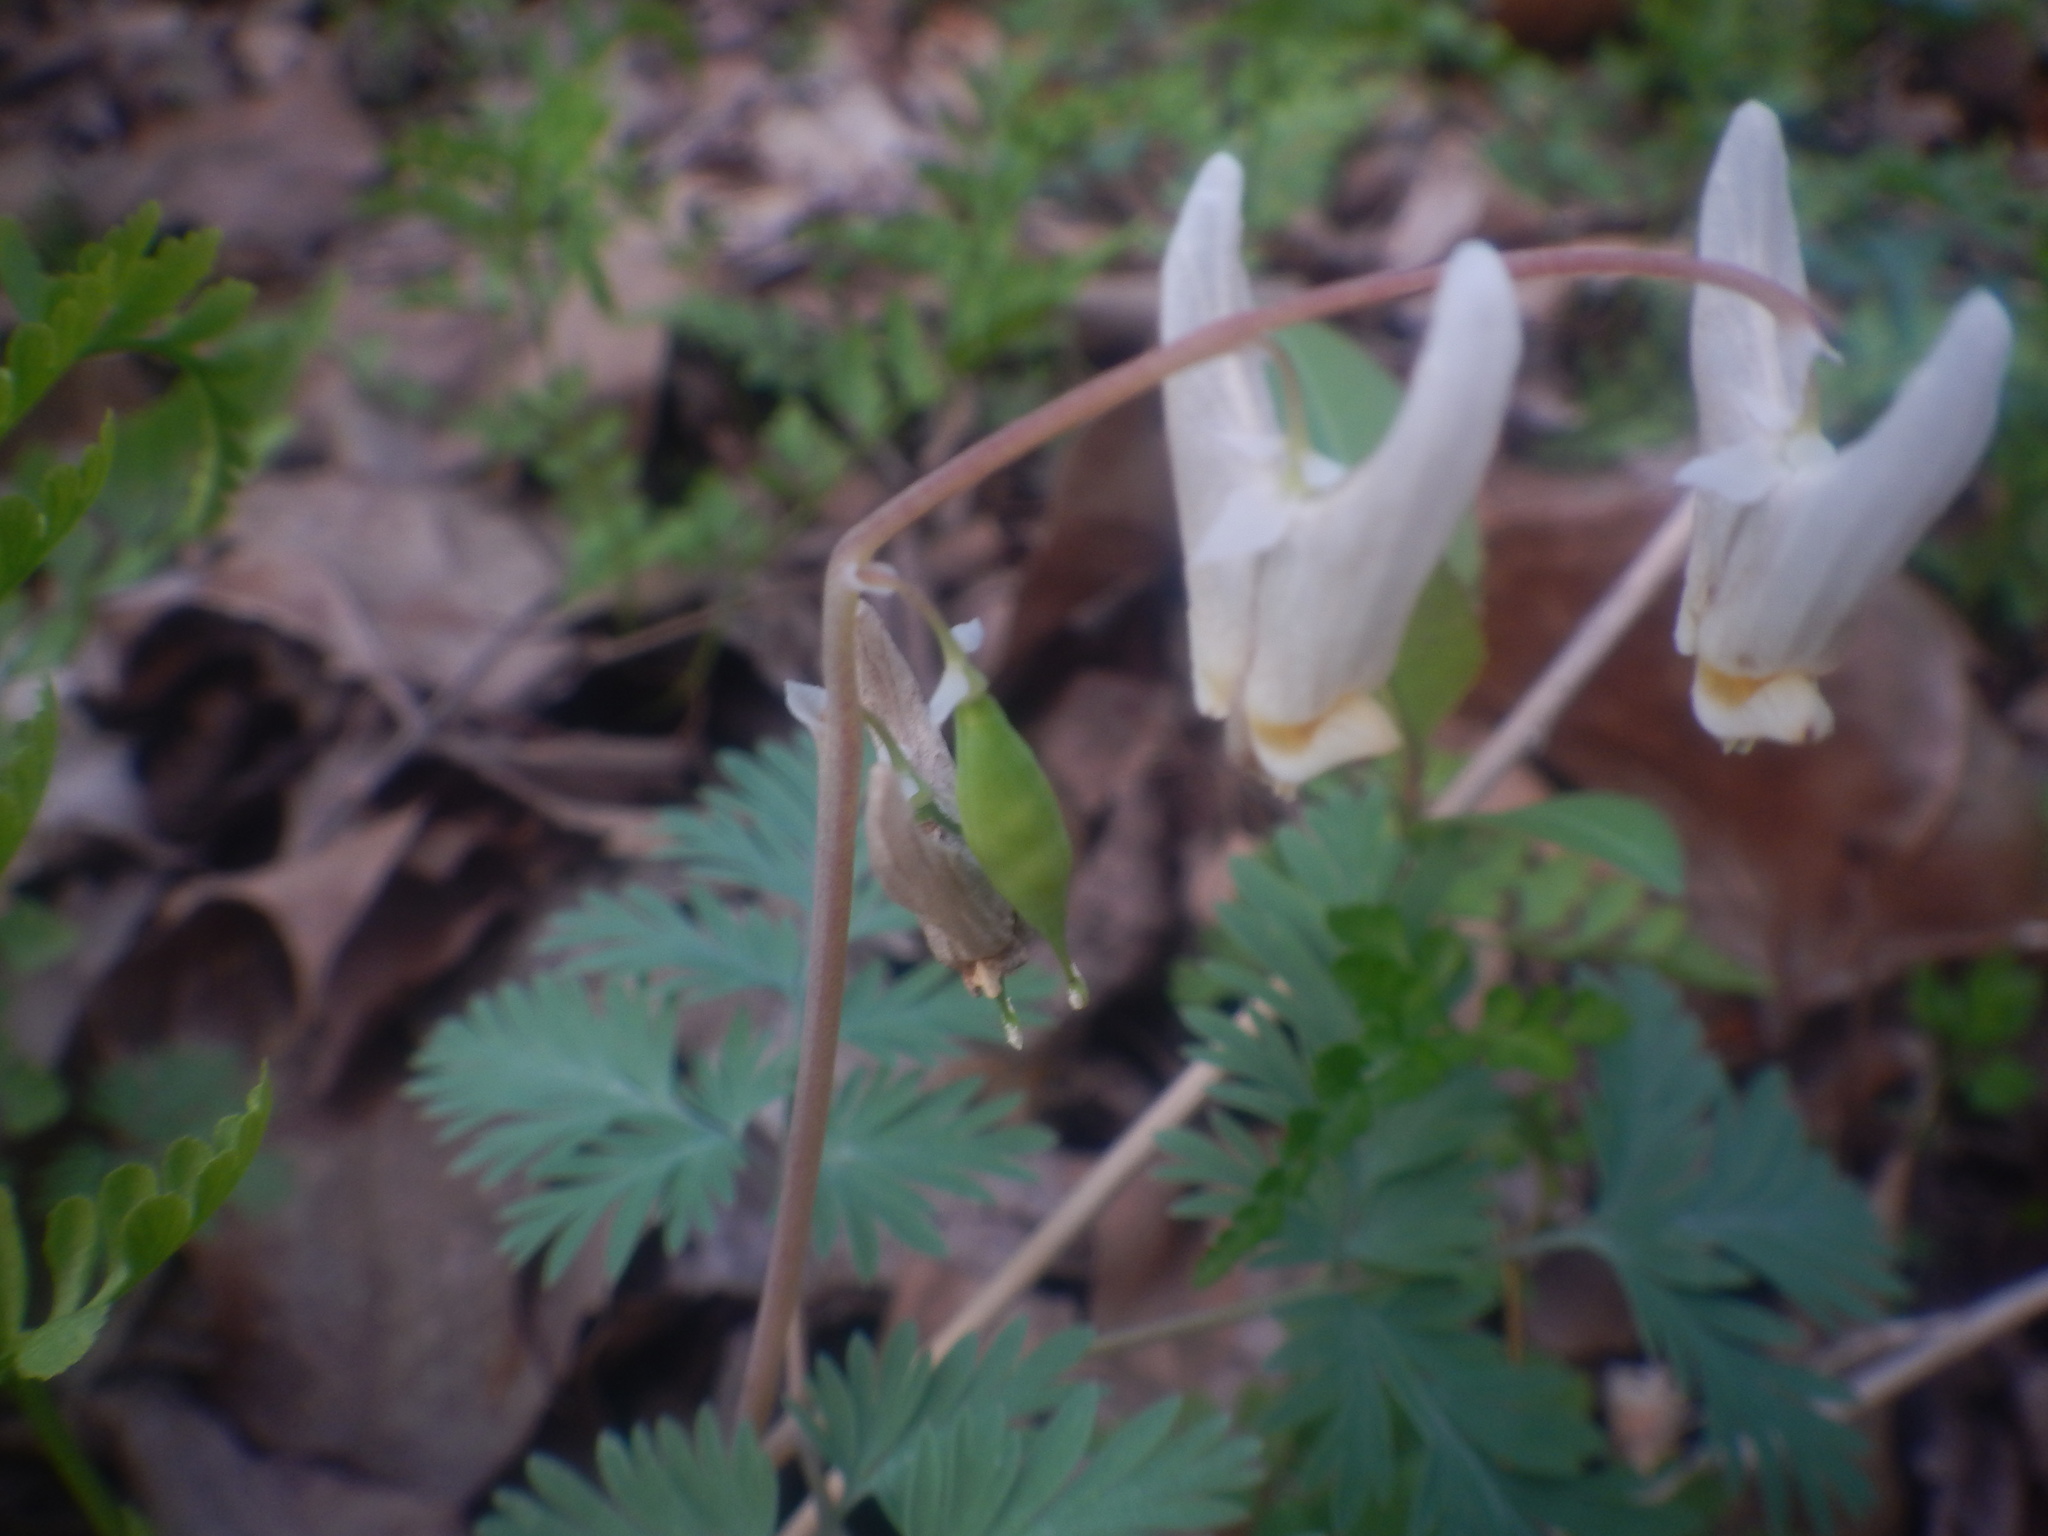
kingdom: Plantae
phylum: Tracheophyta
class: Magnoliopsida
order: Ranunculales
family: Papaveraceae
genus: Dicentra
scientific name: Dicentra cucullaria
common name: Dutchman's breeches
